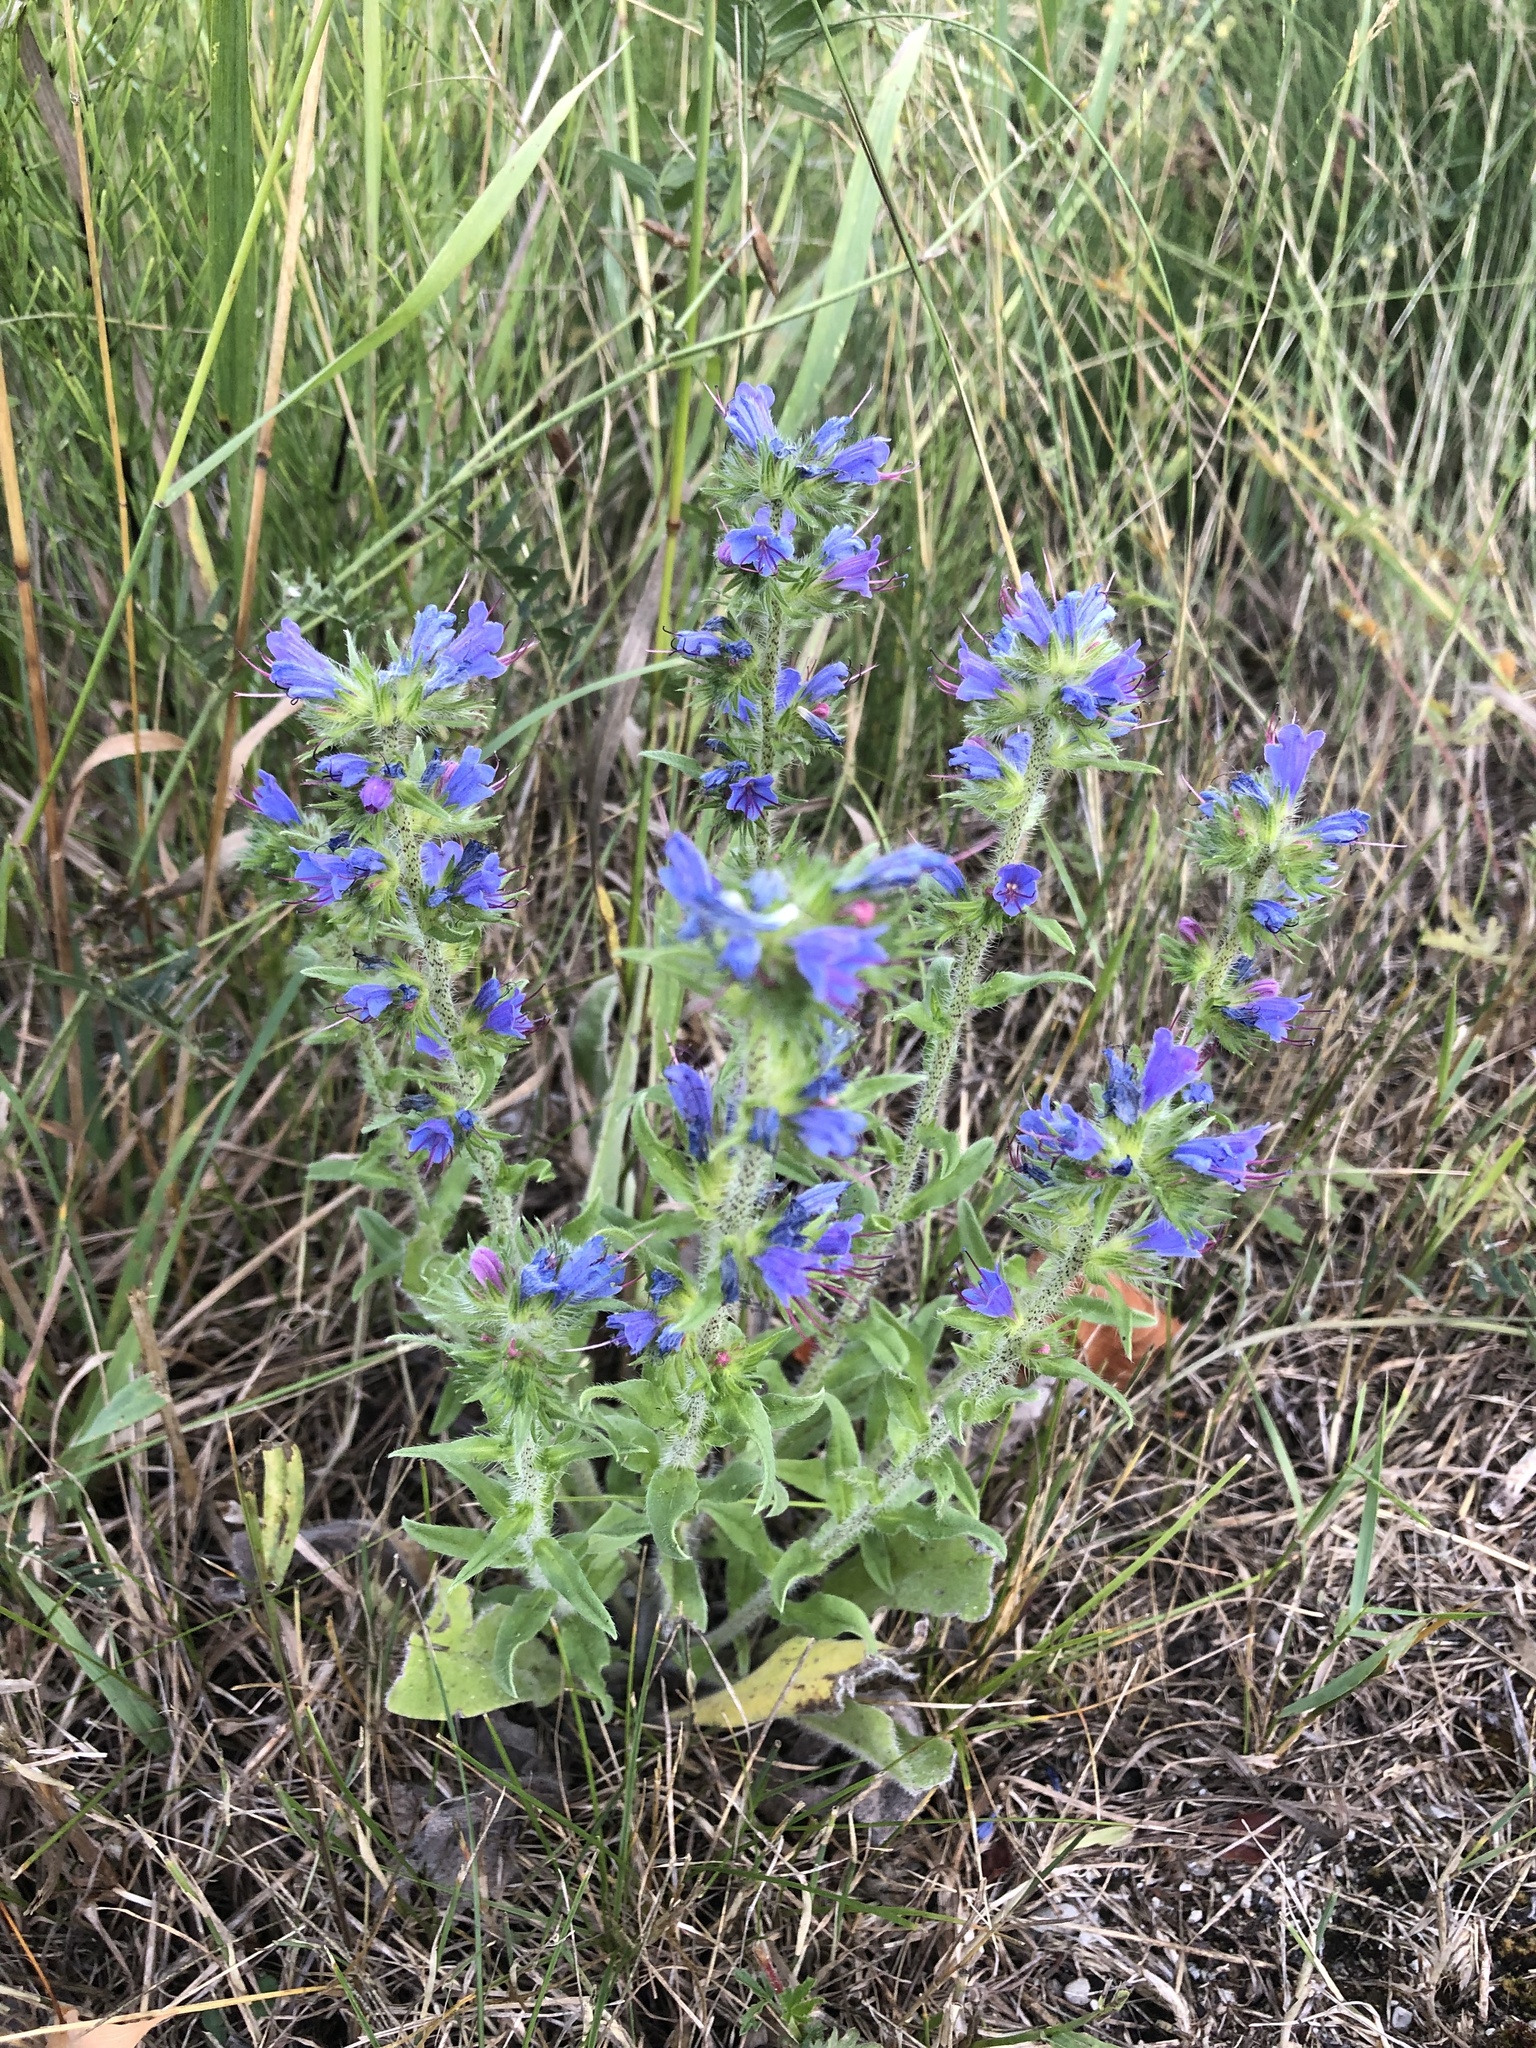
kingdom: Plantae
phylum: Tracheophyta
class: Magnoliopsida
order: Boraginales
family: Boraginaceae
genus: Echium
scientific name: Echium vulgare
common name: Common viper's bugloss
